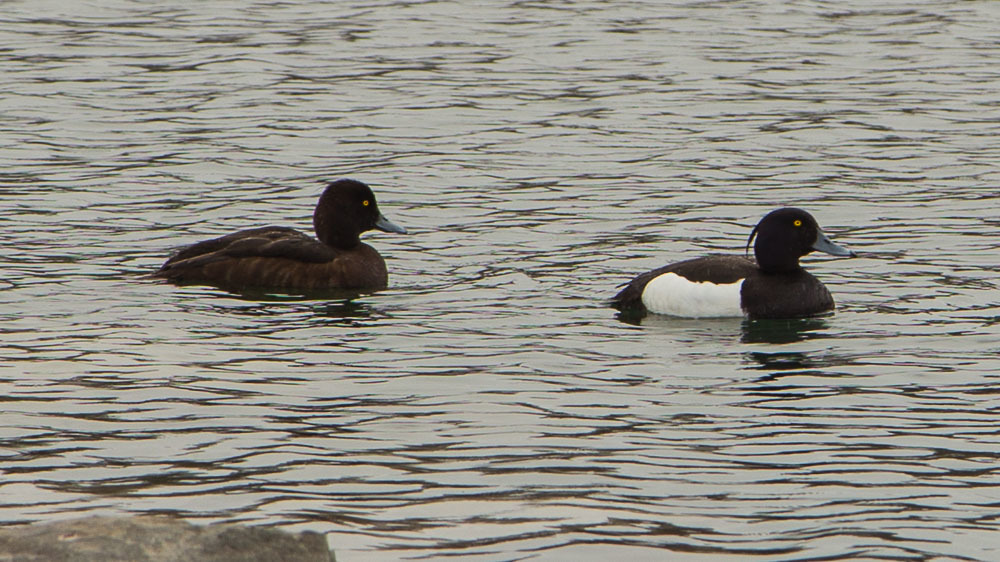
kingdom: Animalia
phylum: Chordata
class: Aves
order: Anseriformes
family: Anatidae
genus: Aythya
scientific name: Aythya fuligula
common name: Tufted duck
